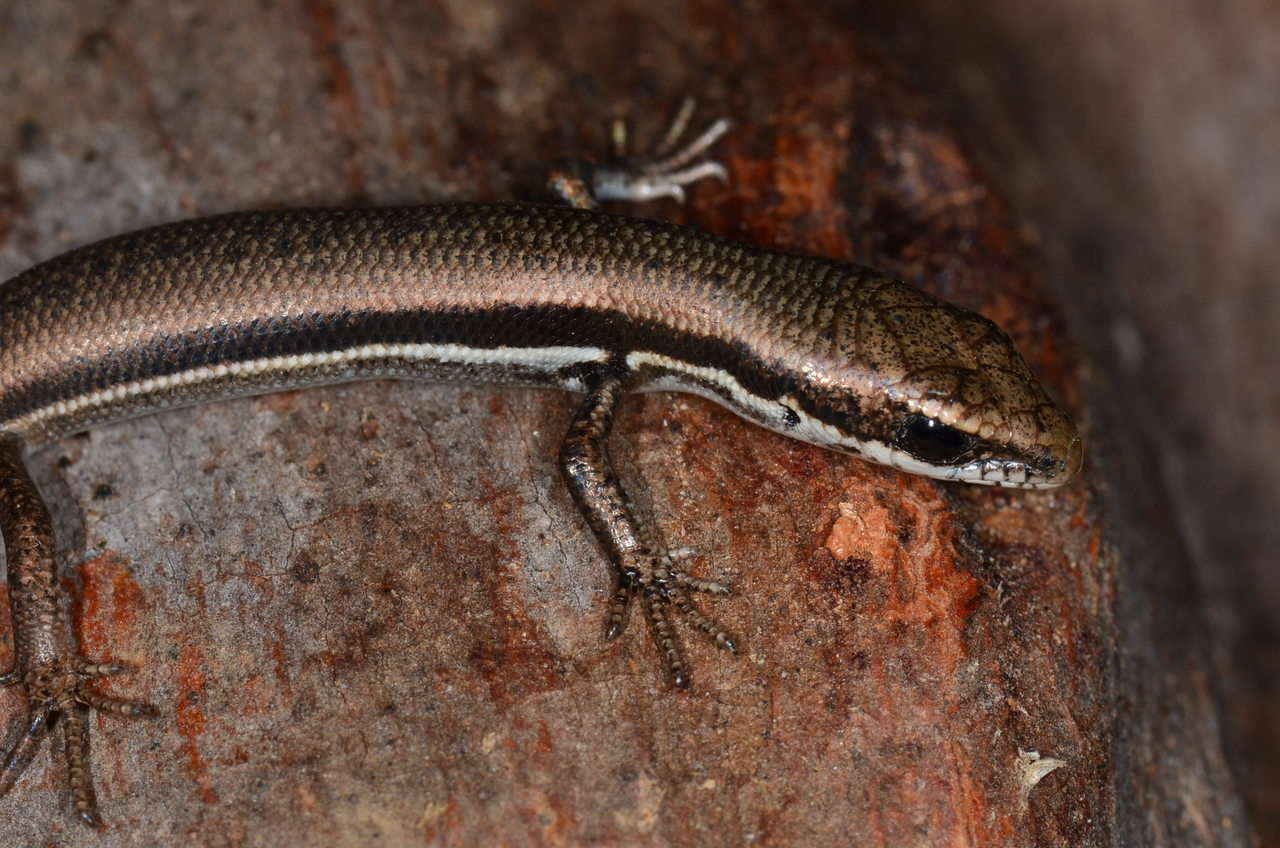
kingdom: Animalia
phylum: Chordata
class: Squamata
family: Scincidae
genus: Morethia
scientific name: Morethia boulengeri
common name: South-eastern morethia skink
